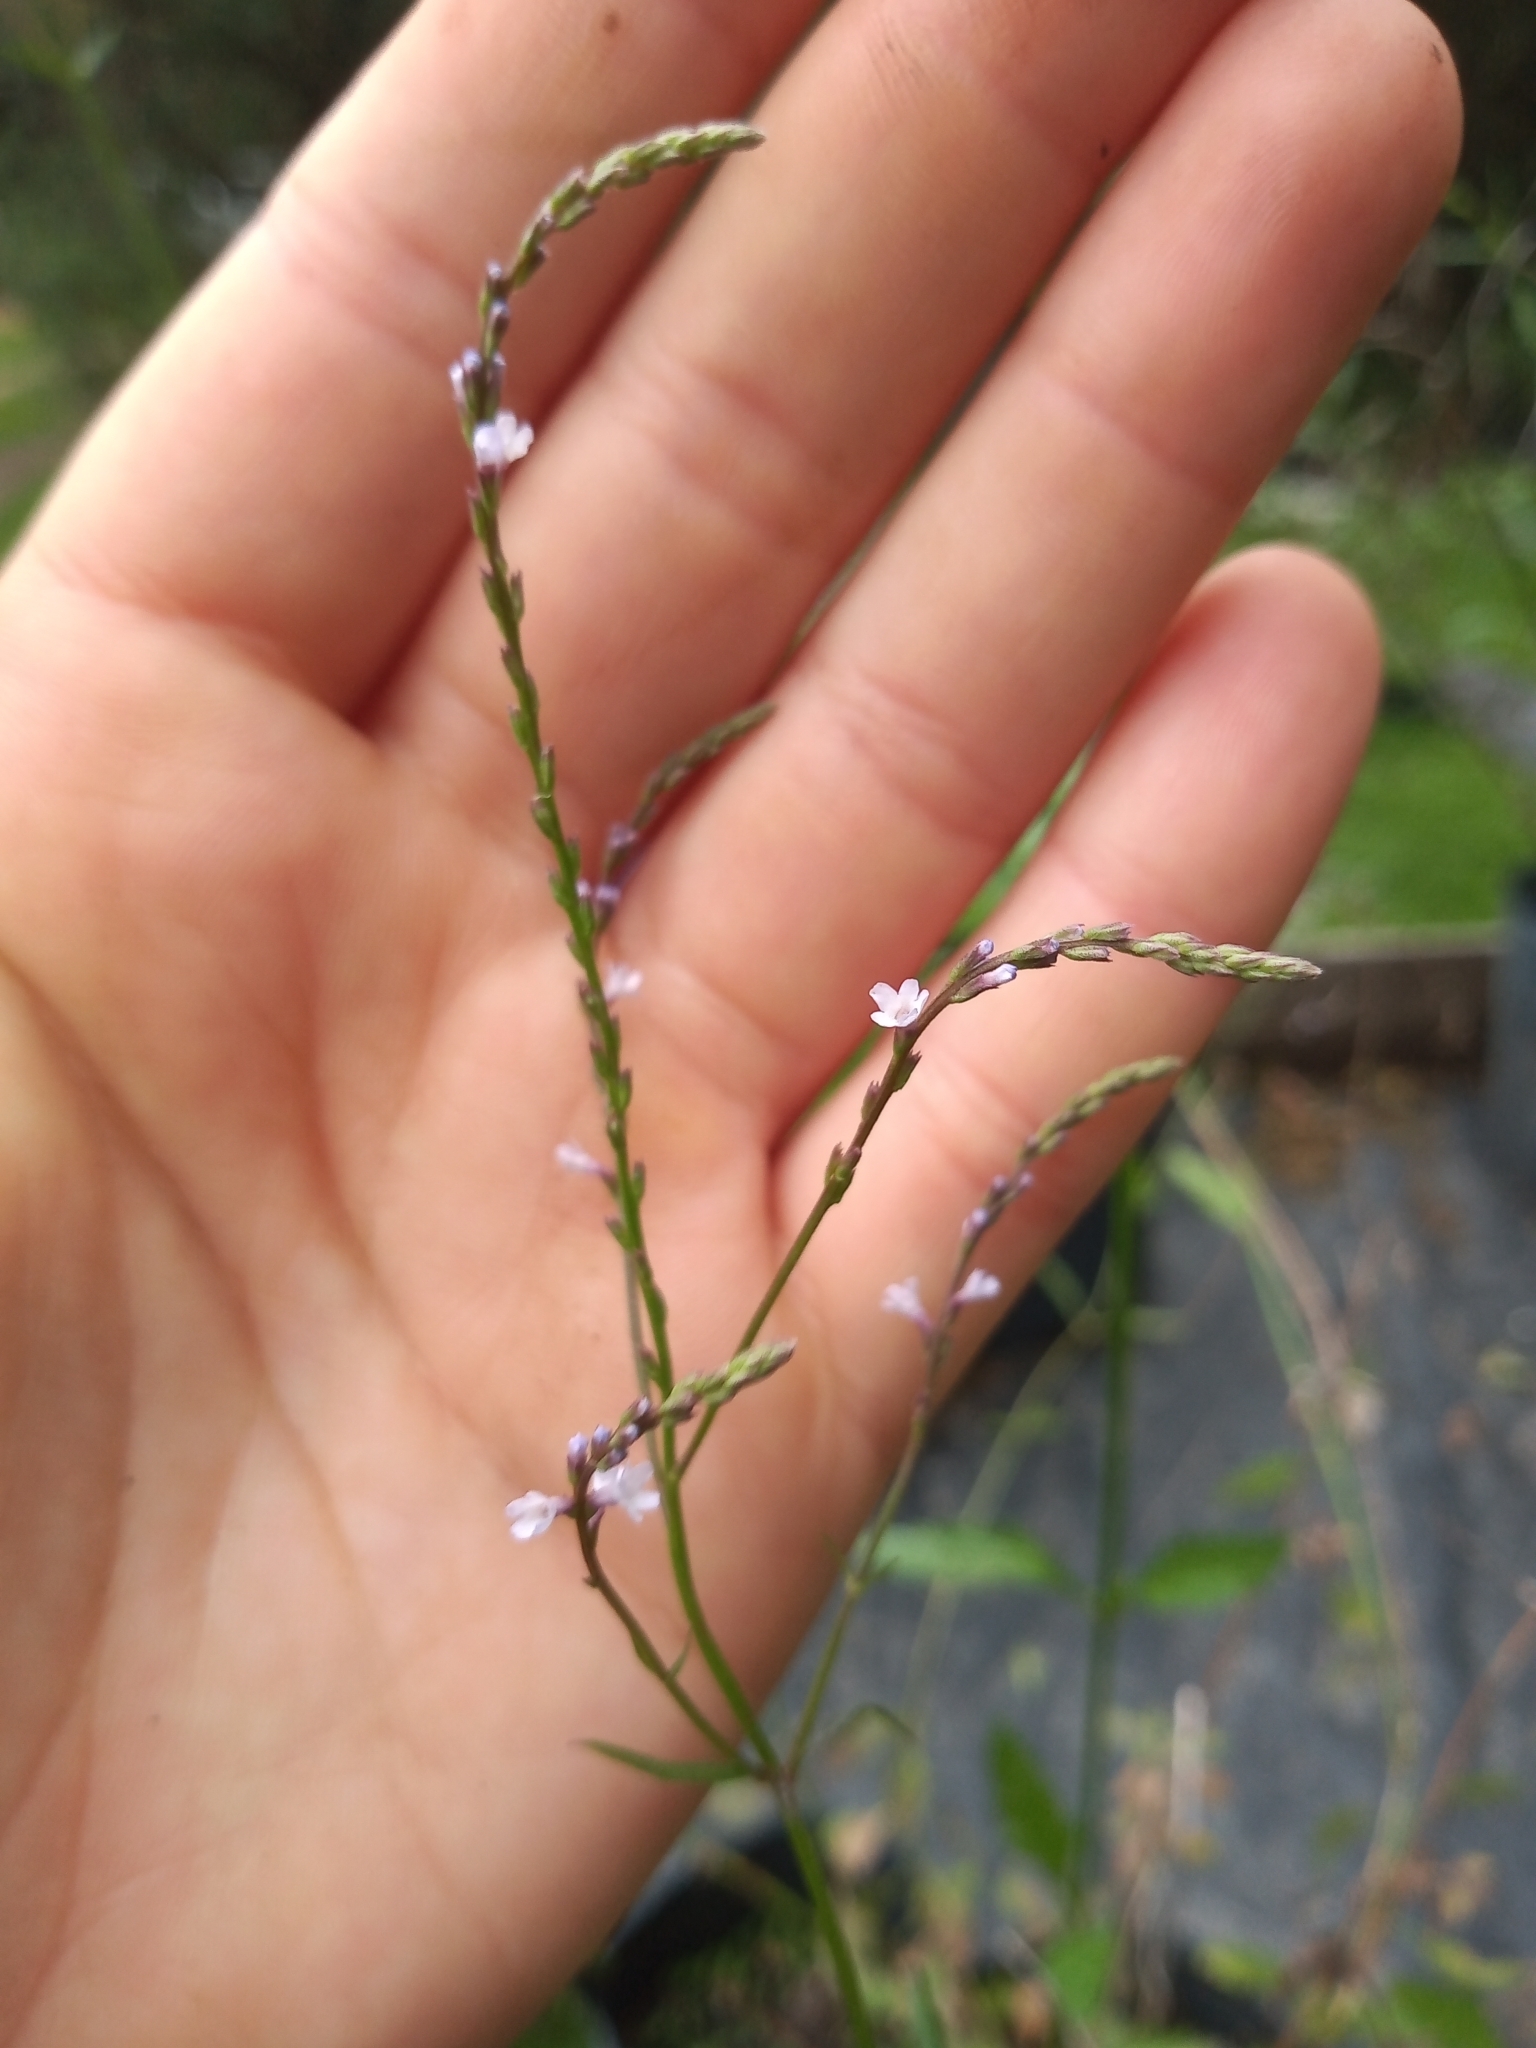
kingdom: Plantae
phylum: Tracheophyta
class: Magnoliopsida
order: Lamiales
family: Verbenaceae
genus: Verbena
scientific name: Verbena gracilescens
